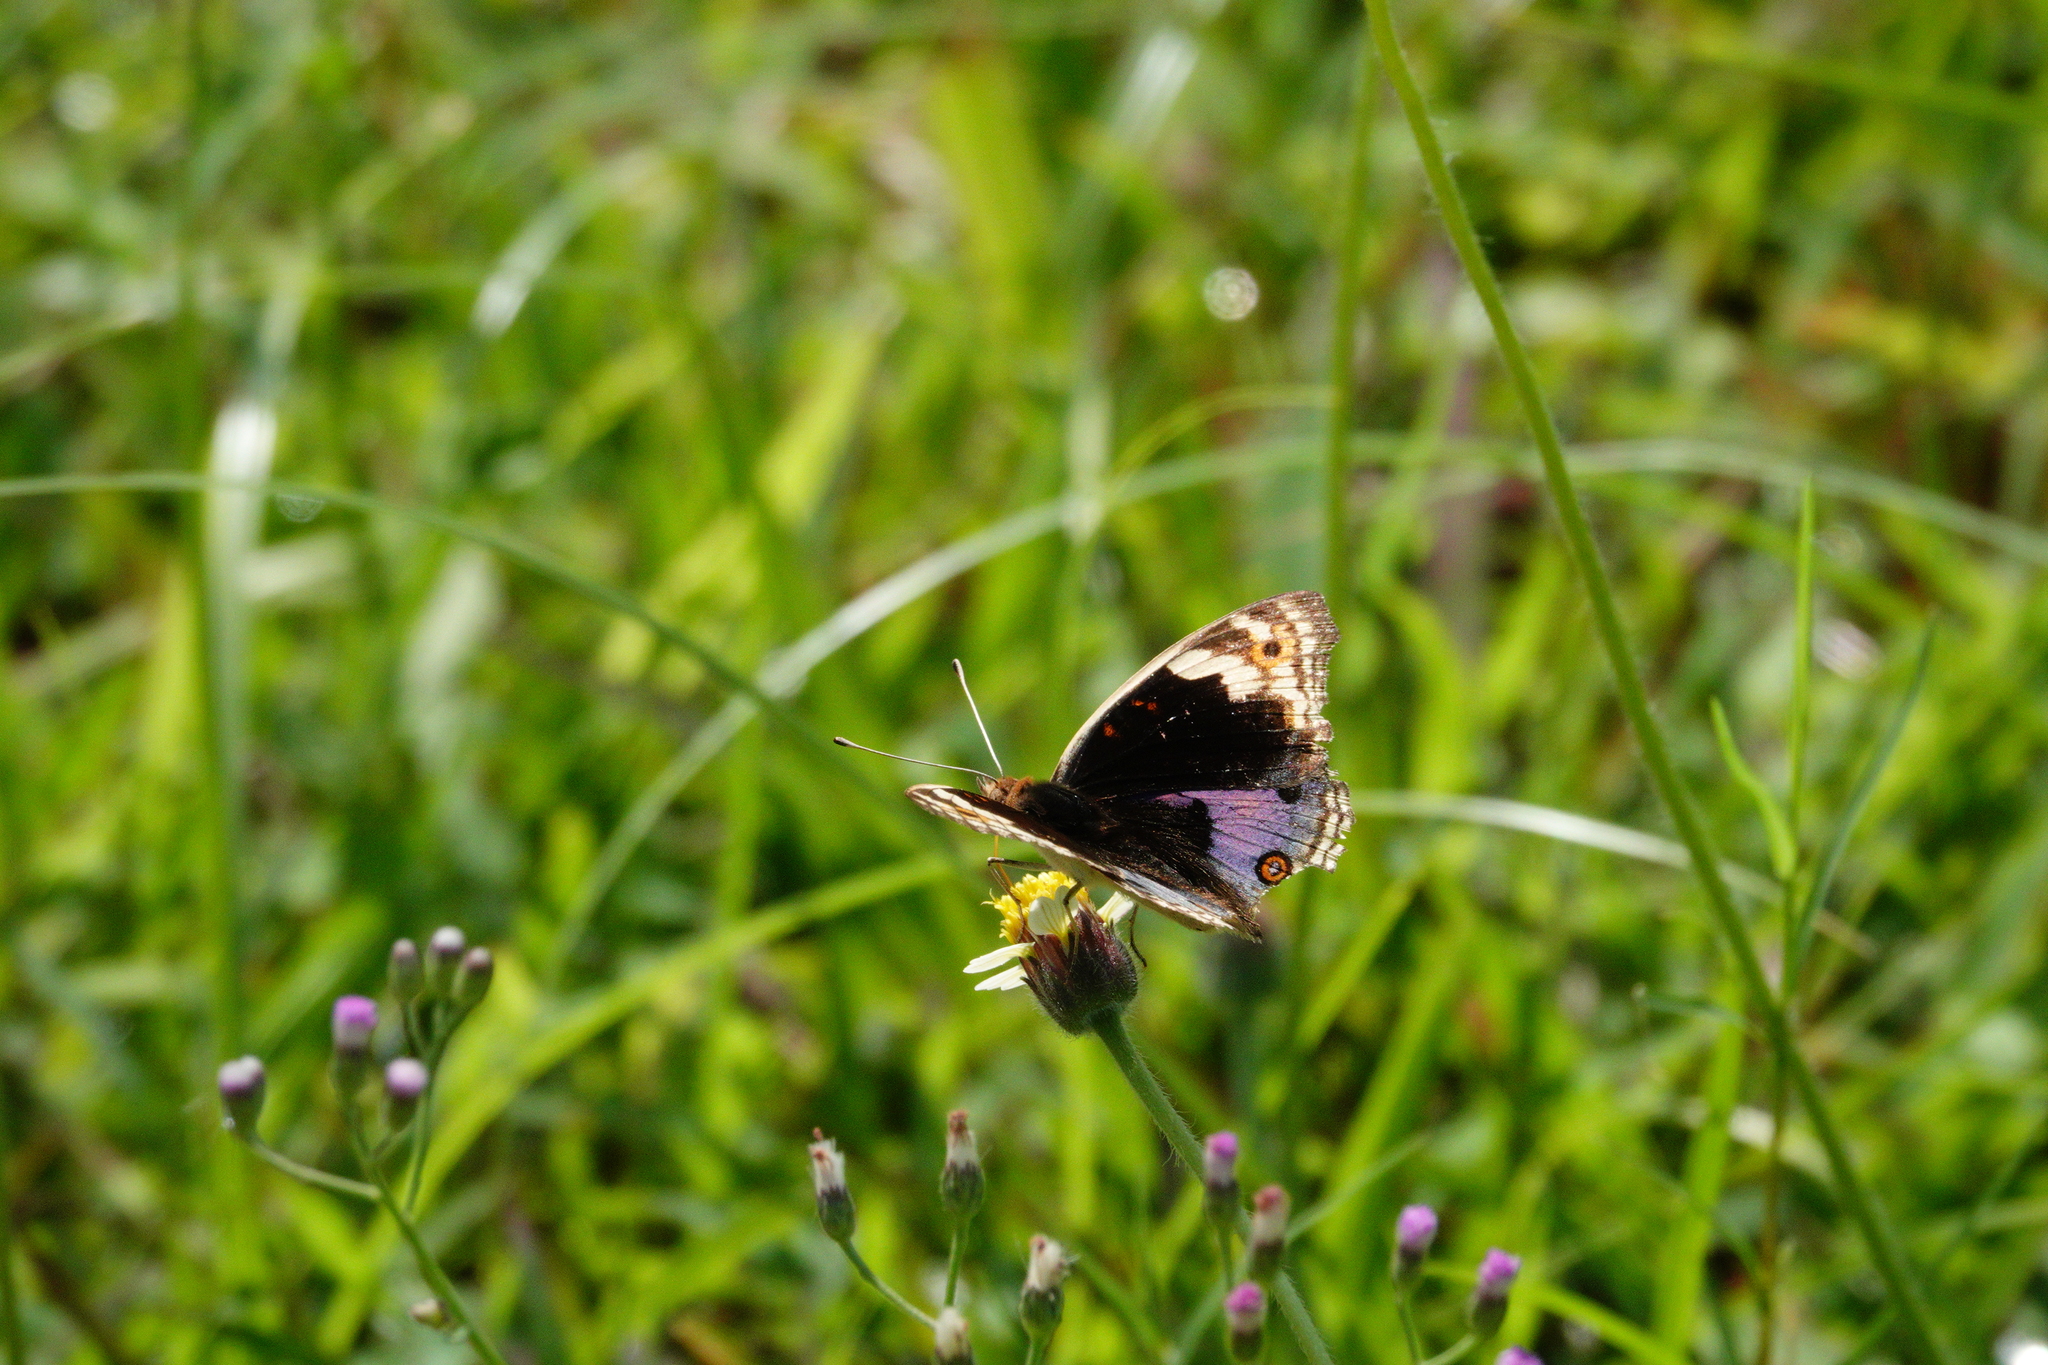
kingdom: Animalia
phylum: Arthropoda
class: Insecta
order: Lepidoptera
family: Nymphalidae
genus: Junonia
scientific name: Junonia orithya
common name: Blue pansy
